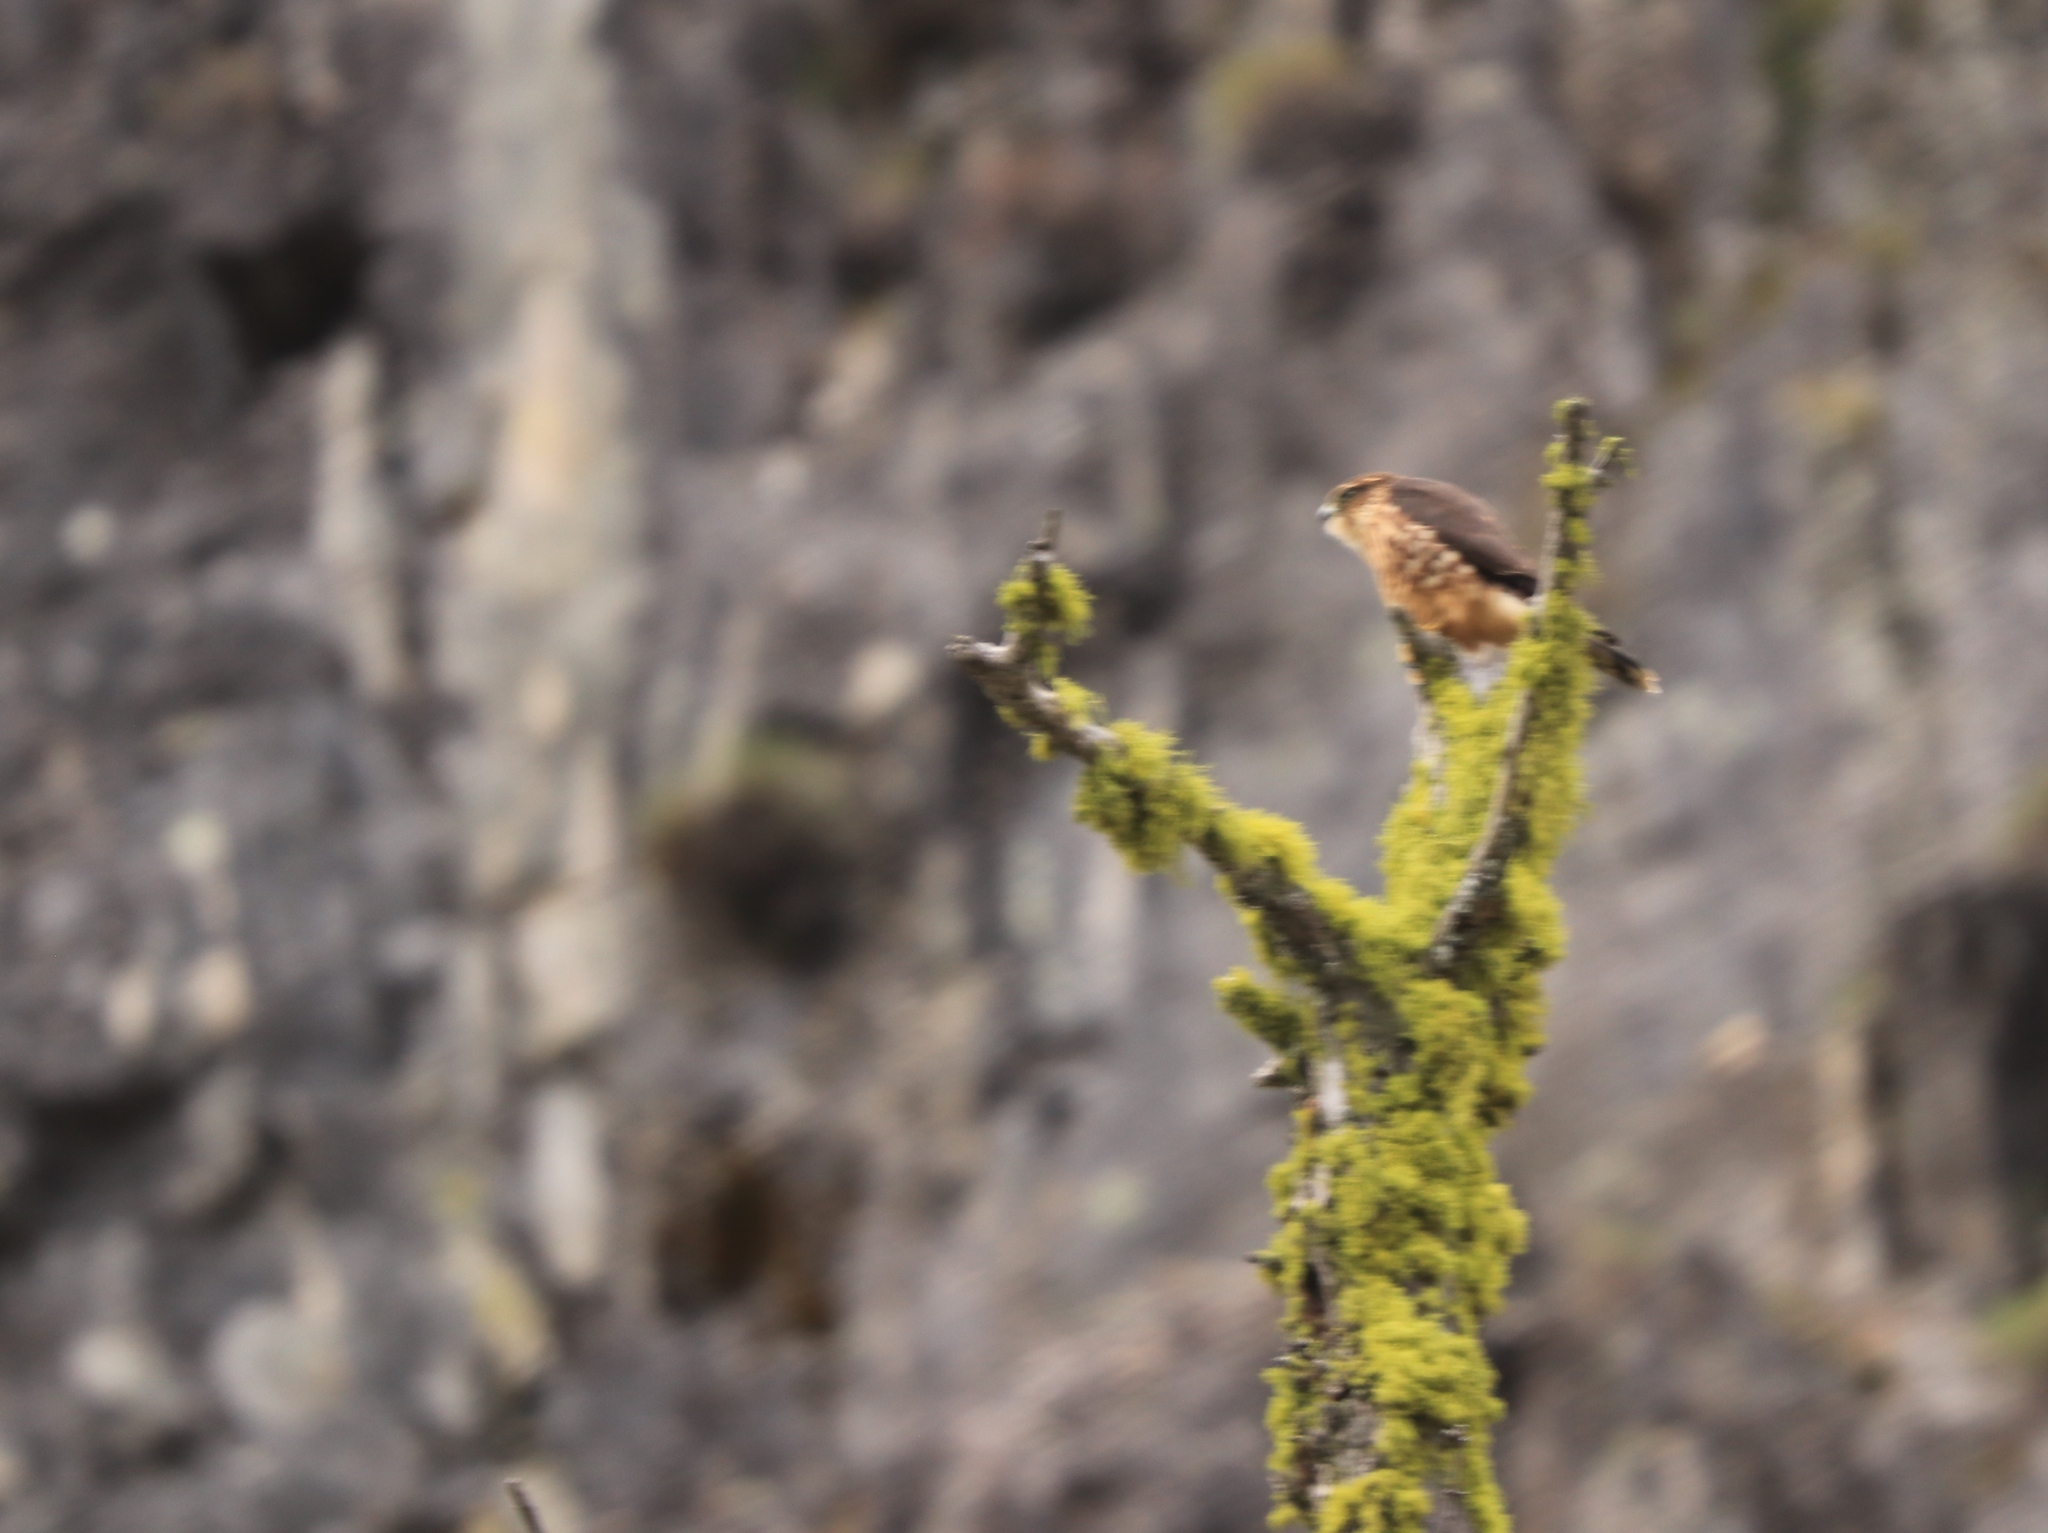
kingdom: Animalia
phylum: Chordata
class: Aves
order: Falconiformes
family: Falconidae
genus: Falco
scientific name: Falco columbarius
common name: Merlin
